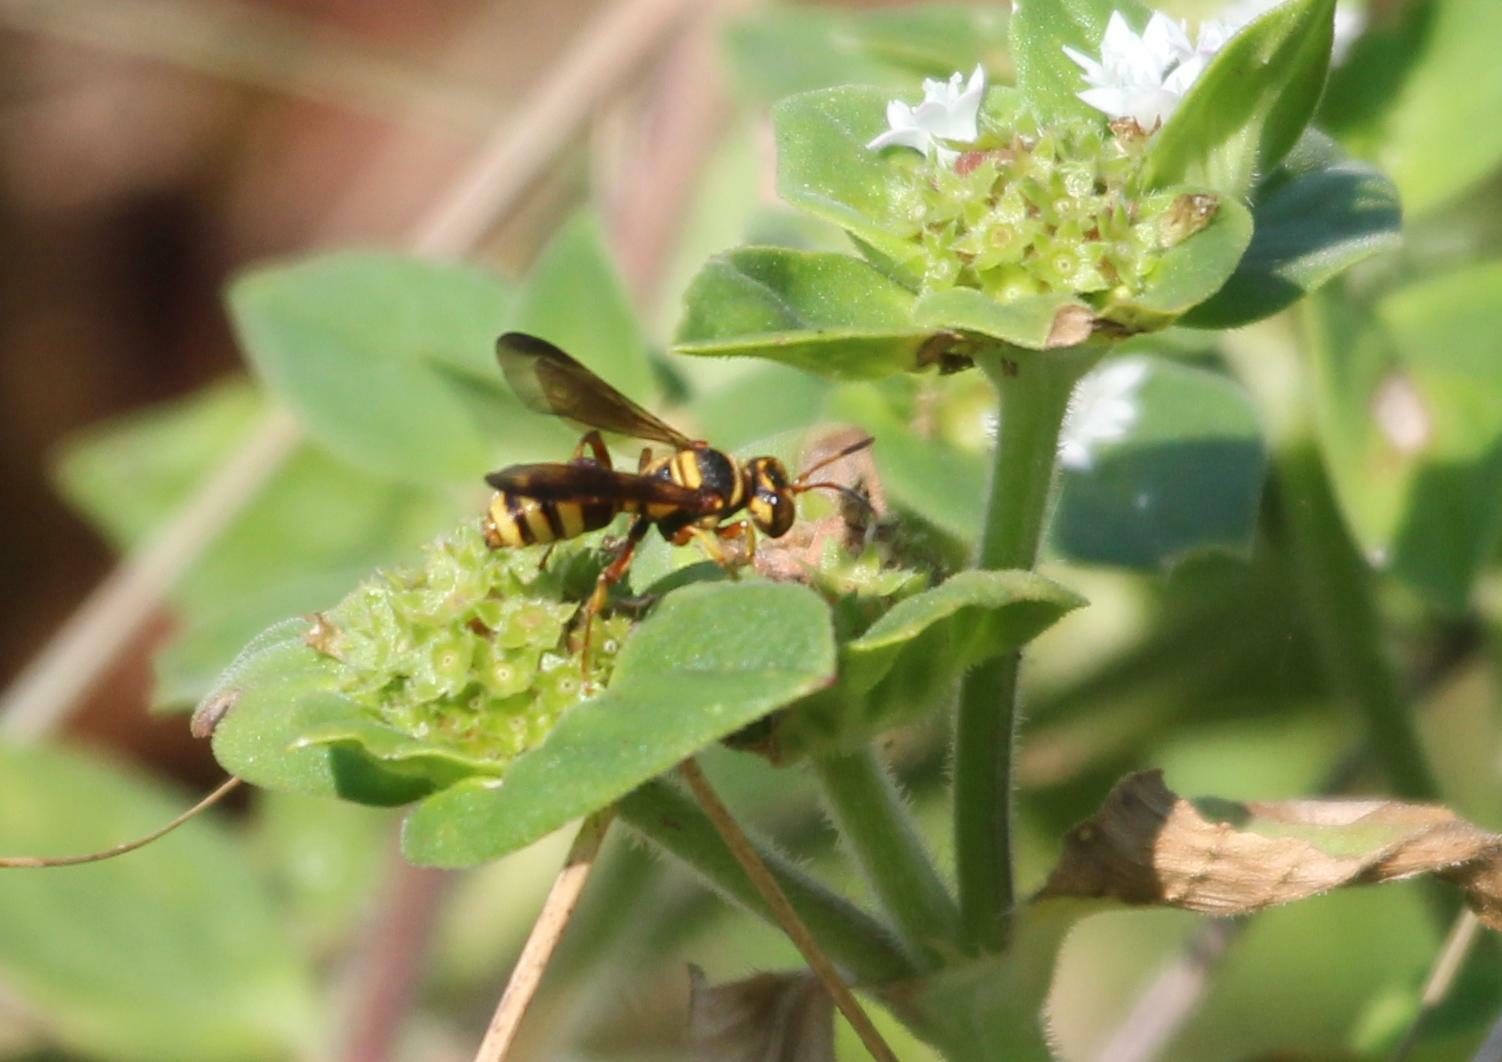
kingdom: Animalia
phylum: Arthropoda
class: Insecta
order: Hymenoptera
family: Crabronidae
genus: Cerceris
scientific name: Cerceris tolteca
